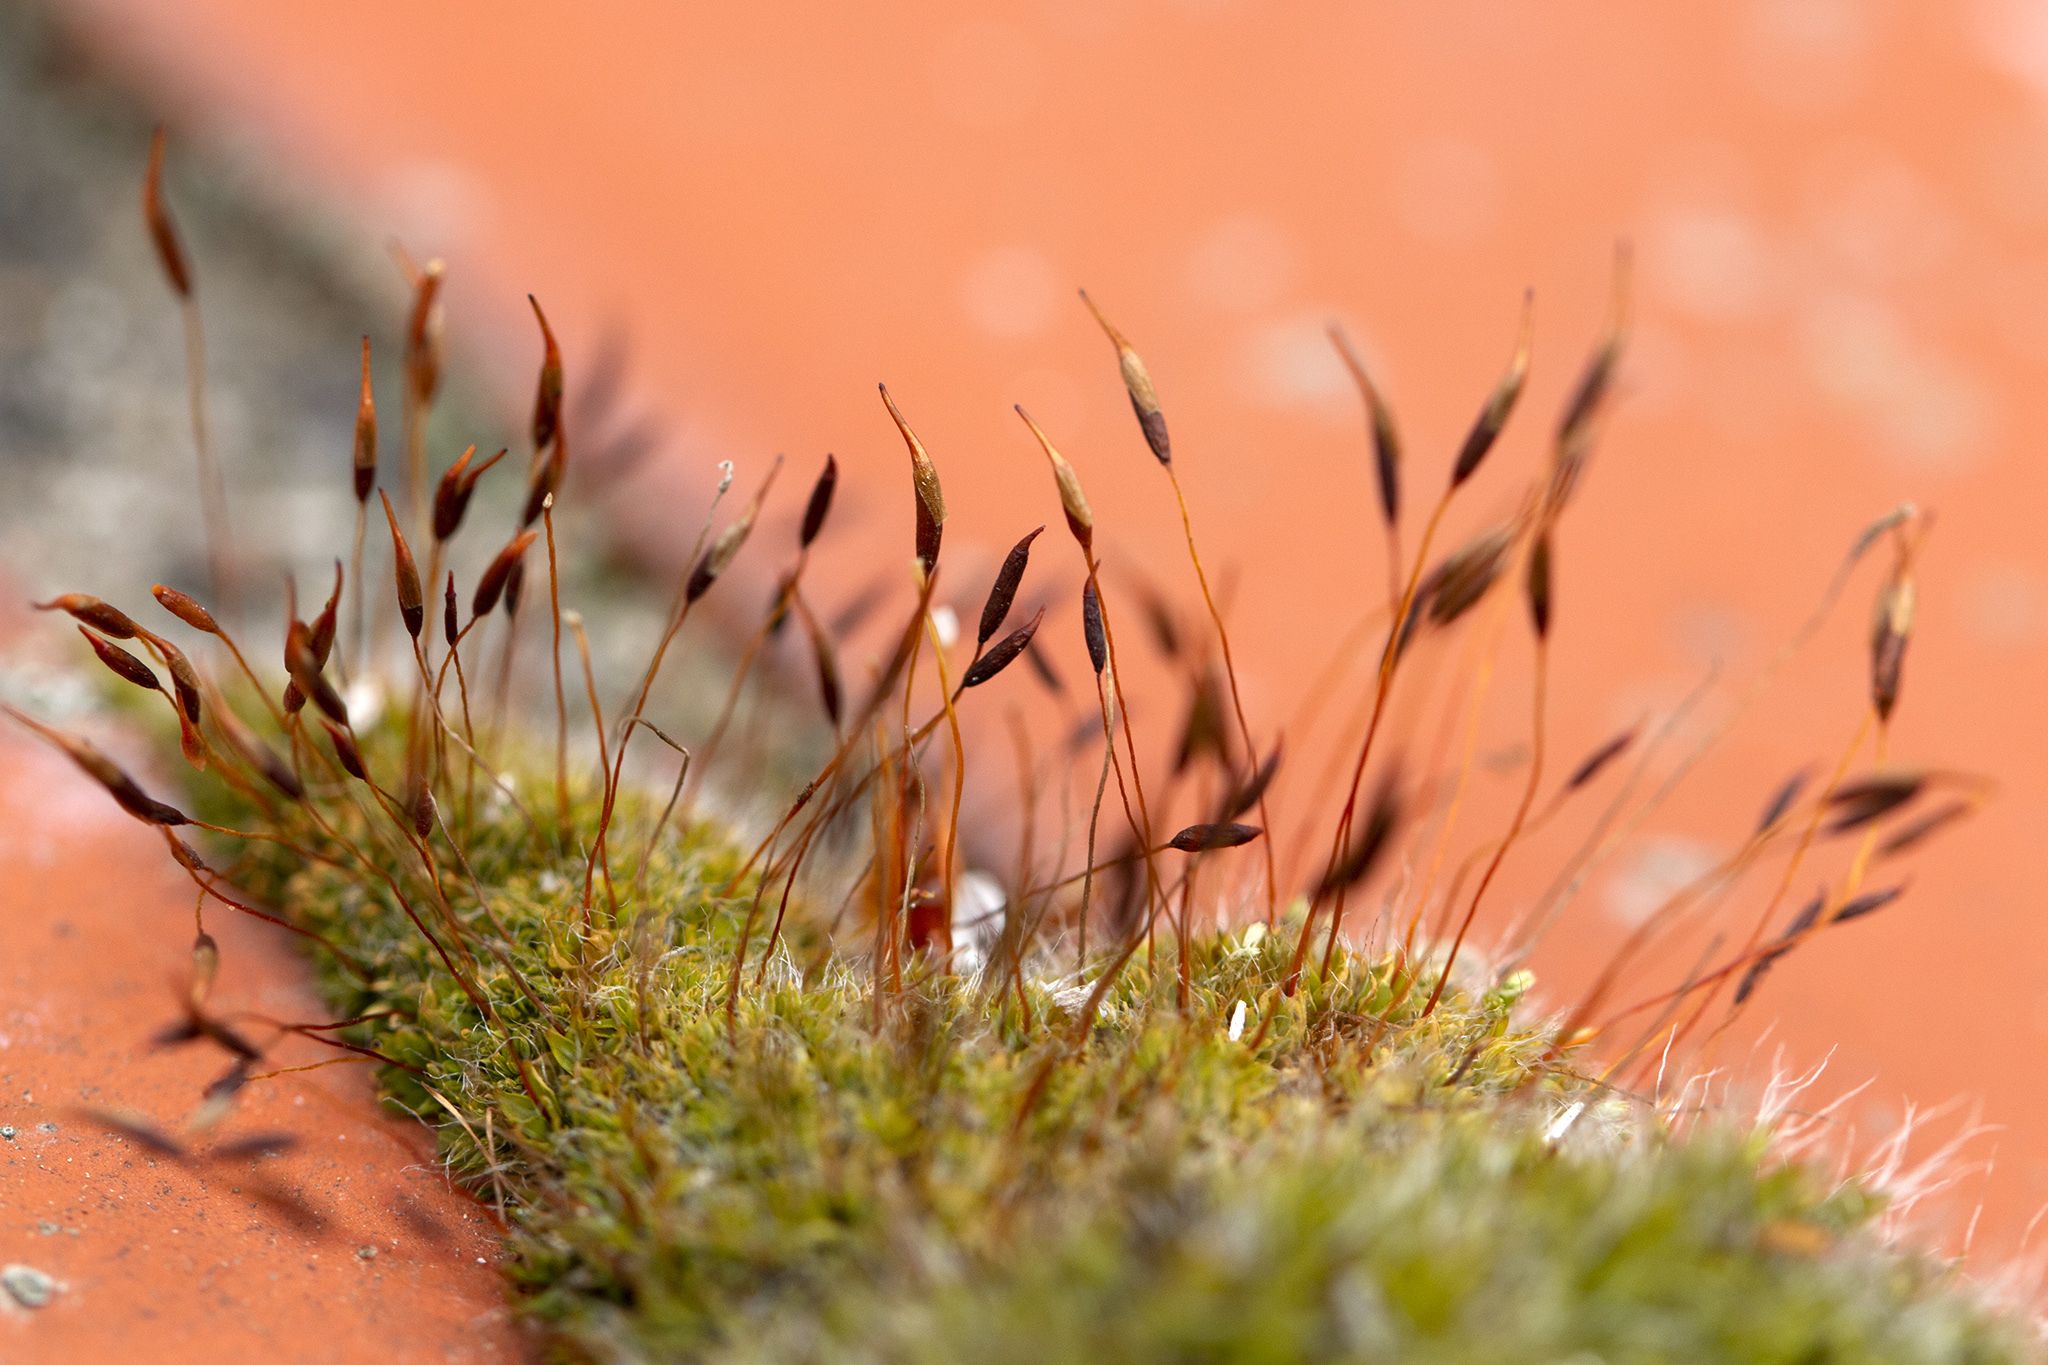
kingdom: Plantae
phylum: Bryophyta
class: Bryopsida
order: Pottiales
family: Pottiaceae
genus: Tortula
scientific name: Tortula muralis
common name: Wall screw-moss
